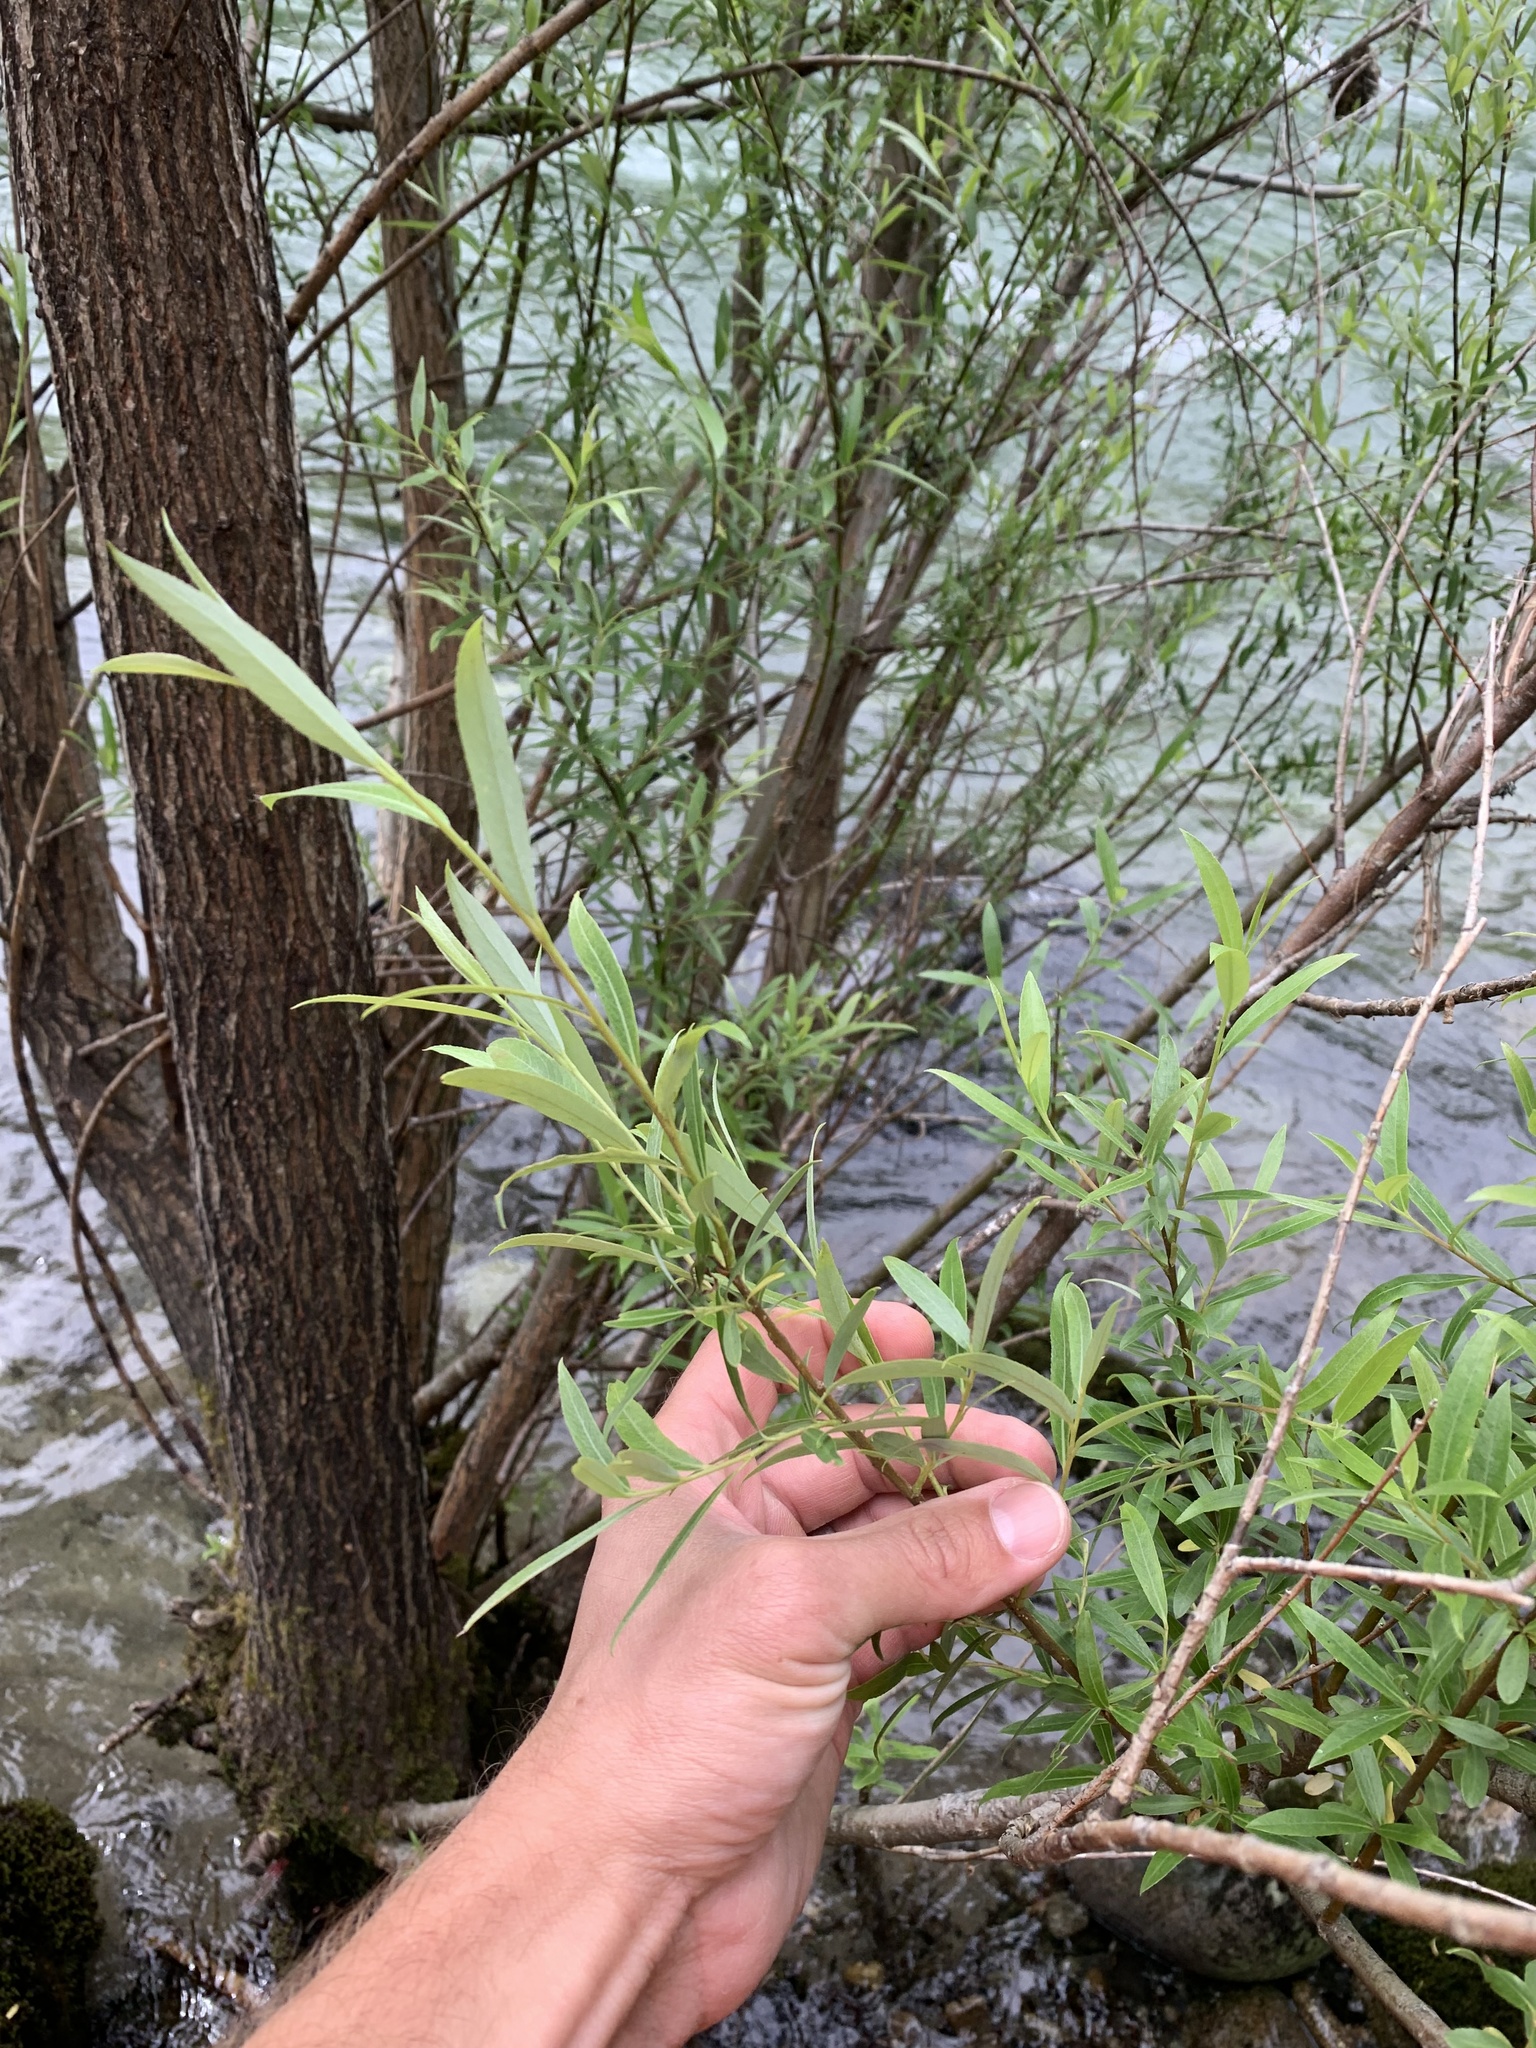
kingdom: Plantae
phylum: Tracheophyta
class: Magnoliopsida
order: Malpighiales
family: Salicaceae
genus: Salix
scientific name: Salix geyeriana
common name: Geyer's willow
